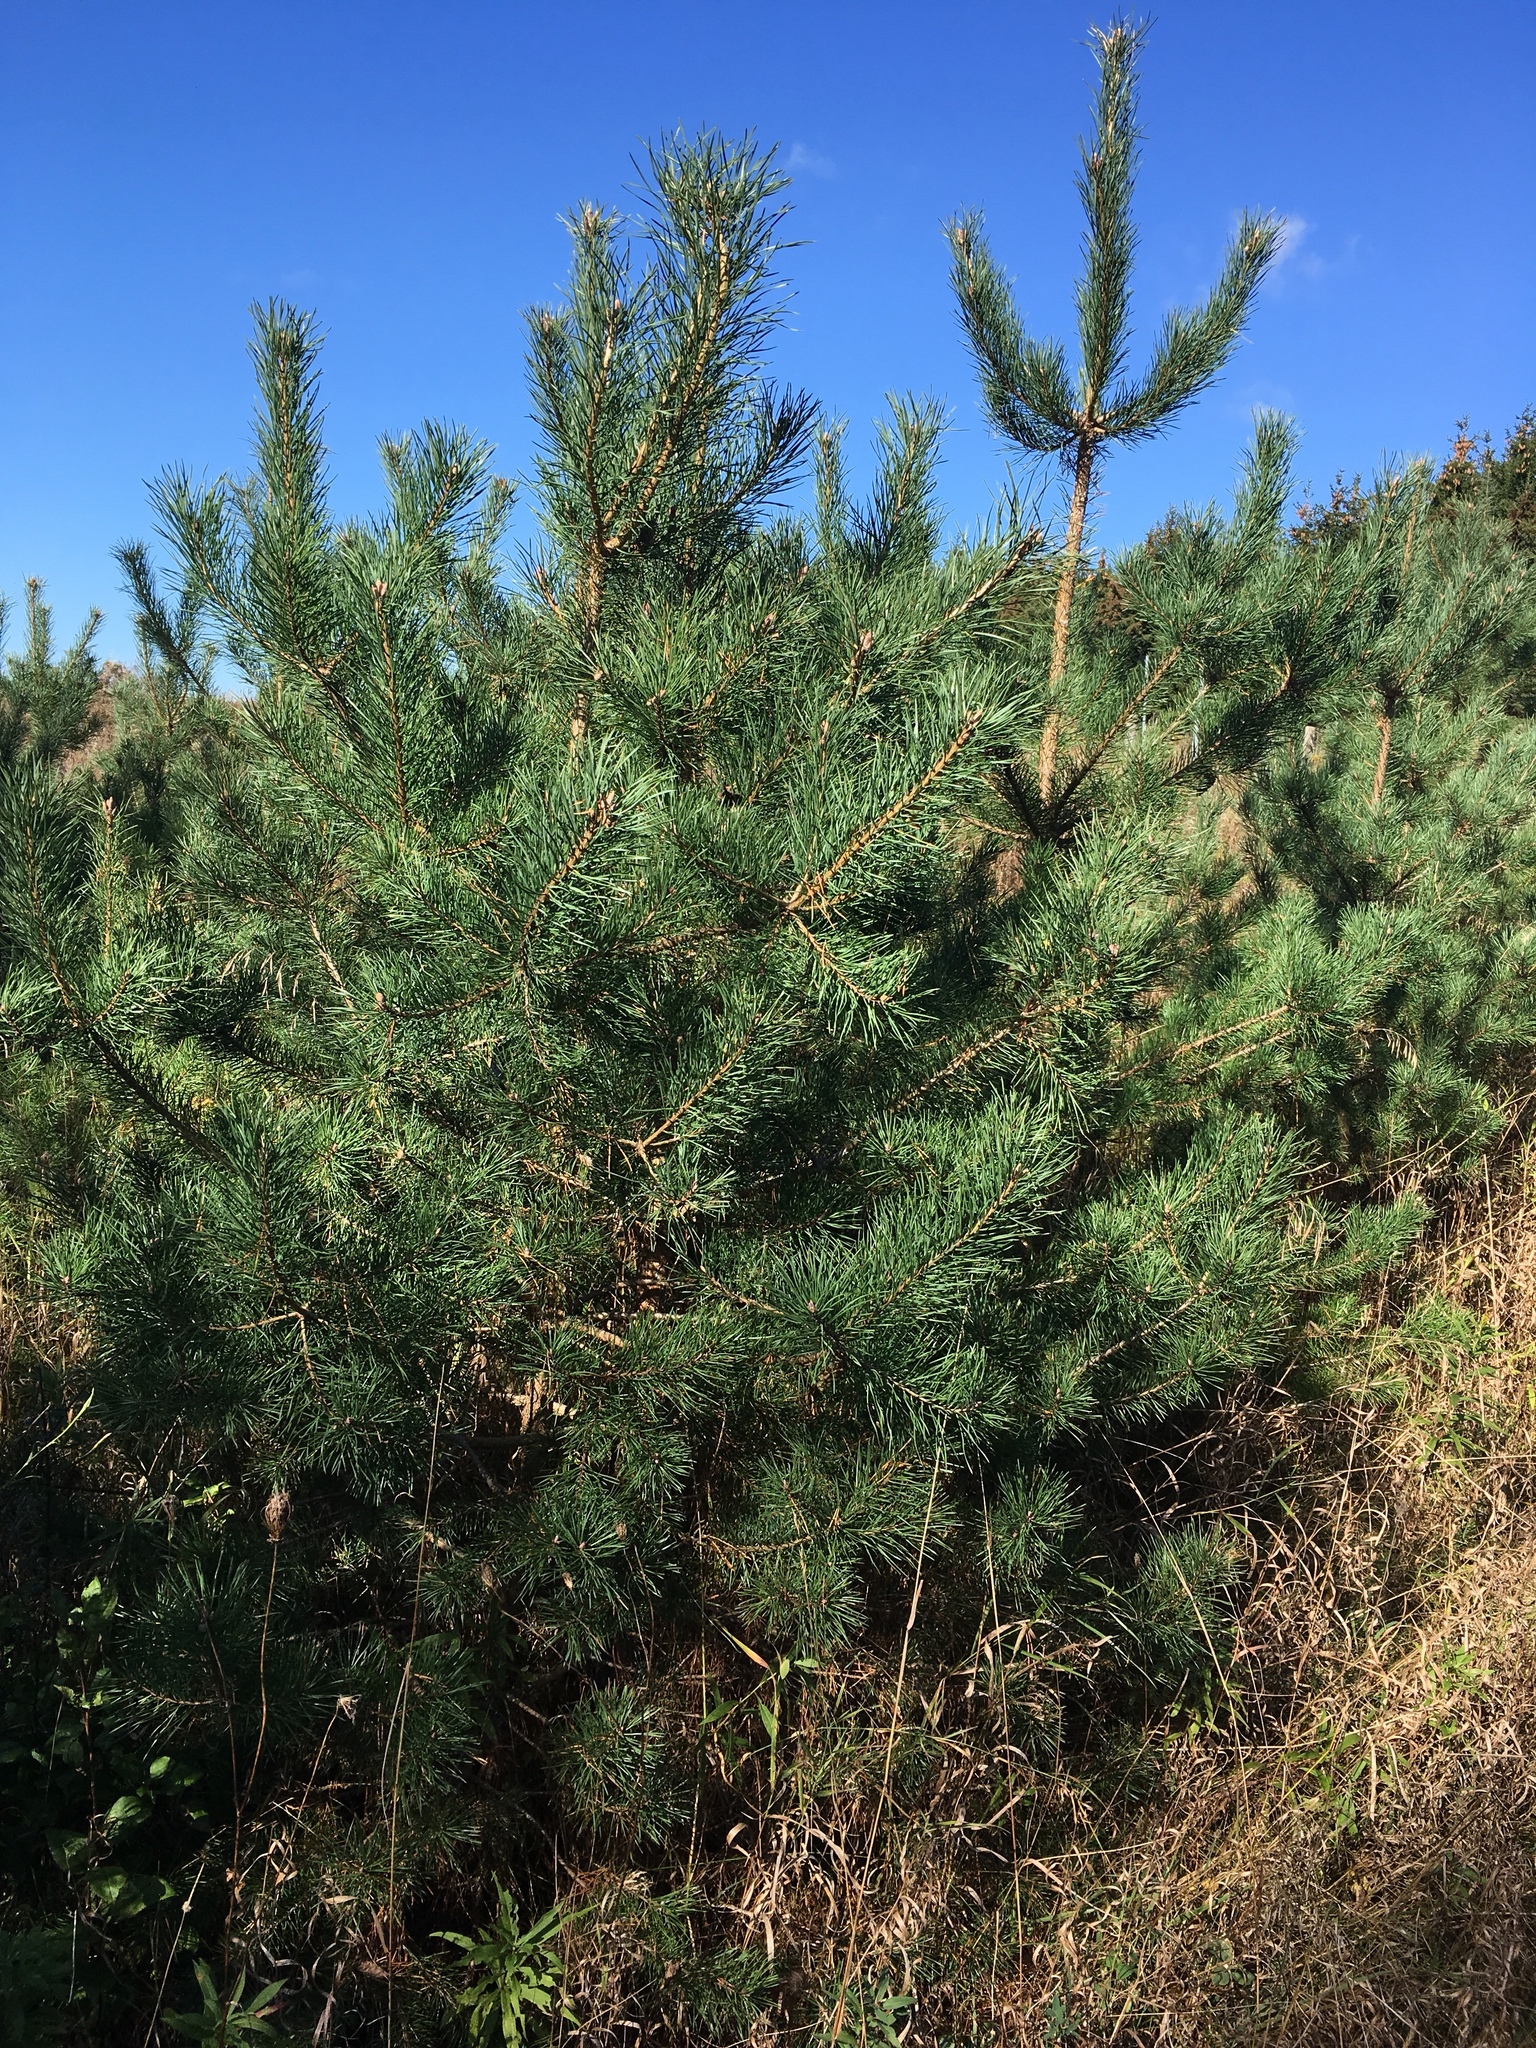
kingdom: Plantae
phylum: Tracheophyta
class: Pinopsida
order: Pinales
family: Pinaceae
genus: Pinus
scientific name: Pinus sylvestris
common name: Scots pine
